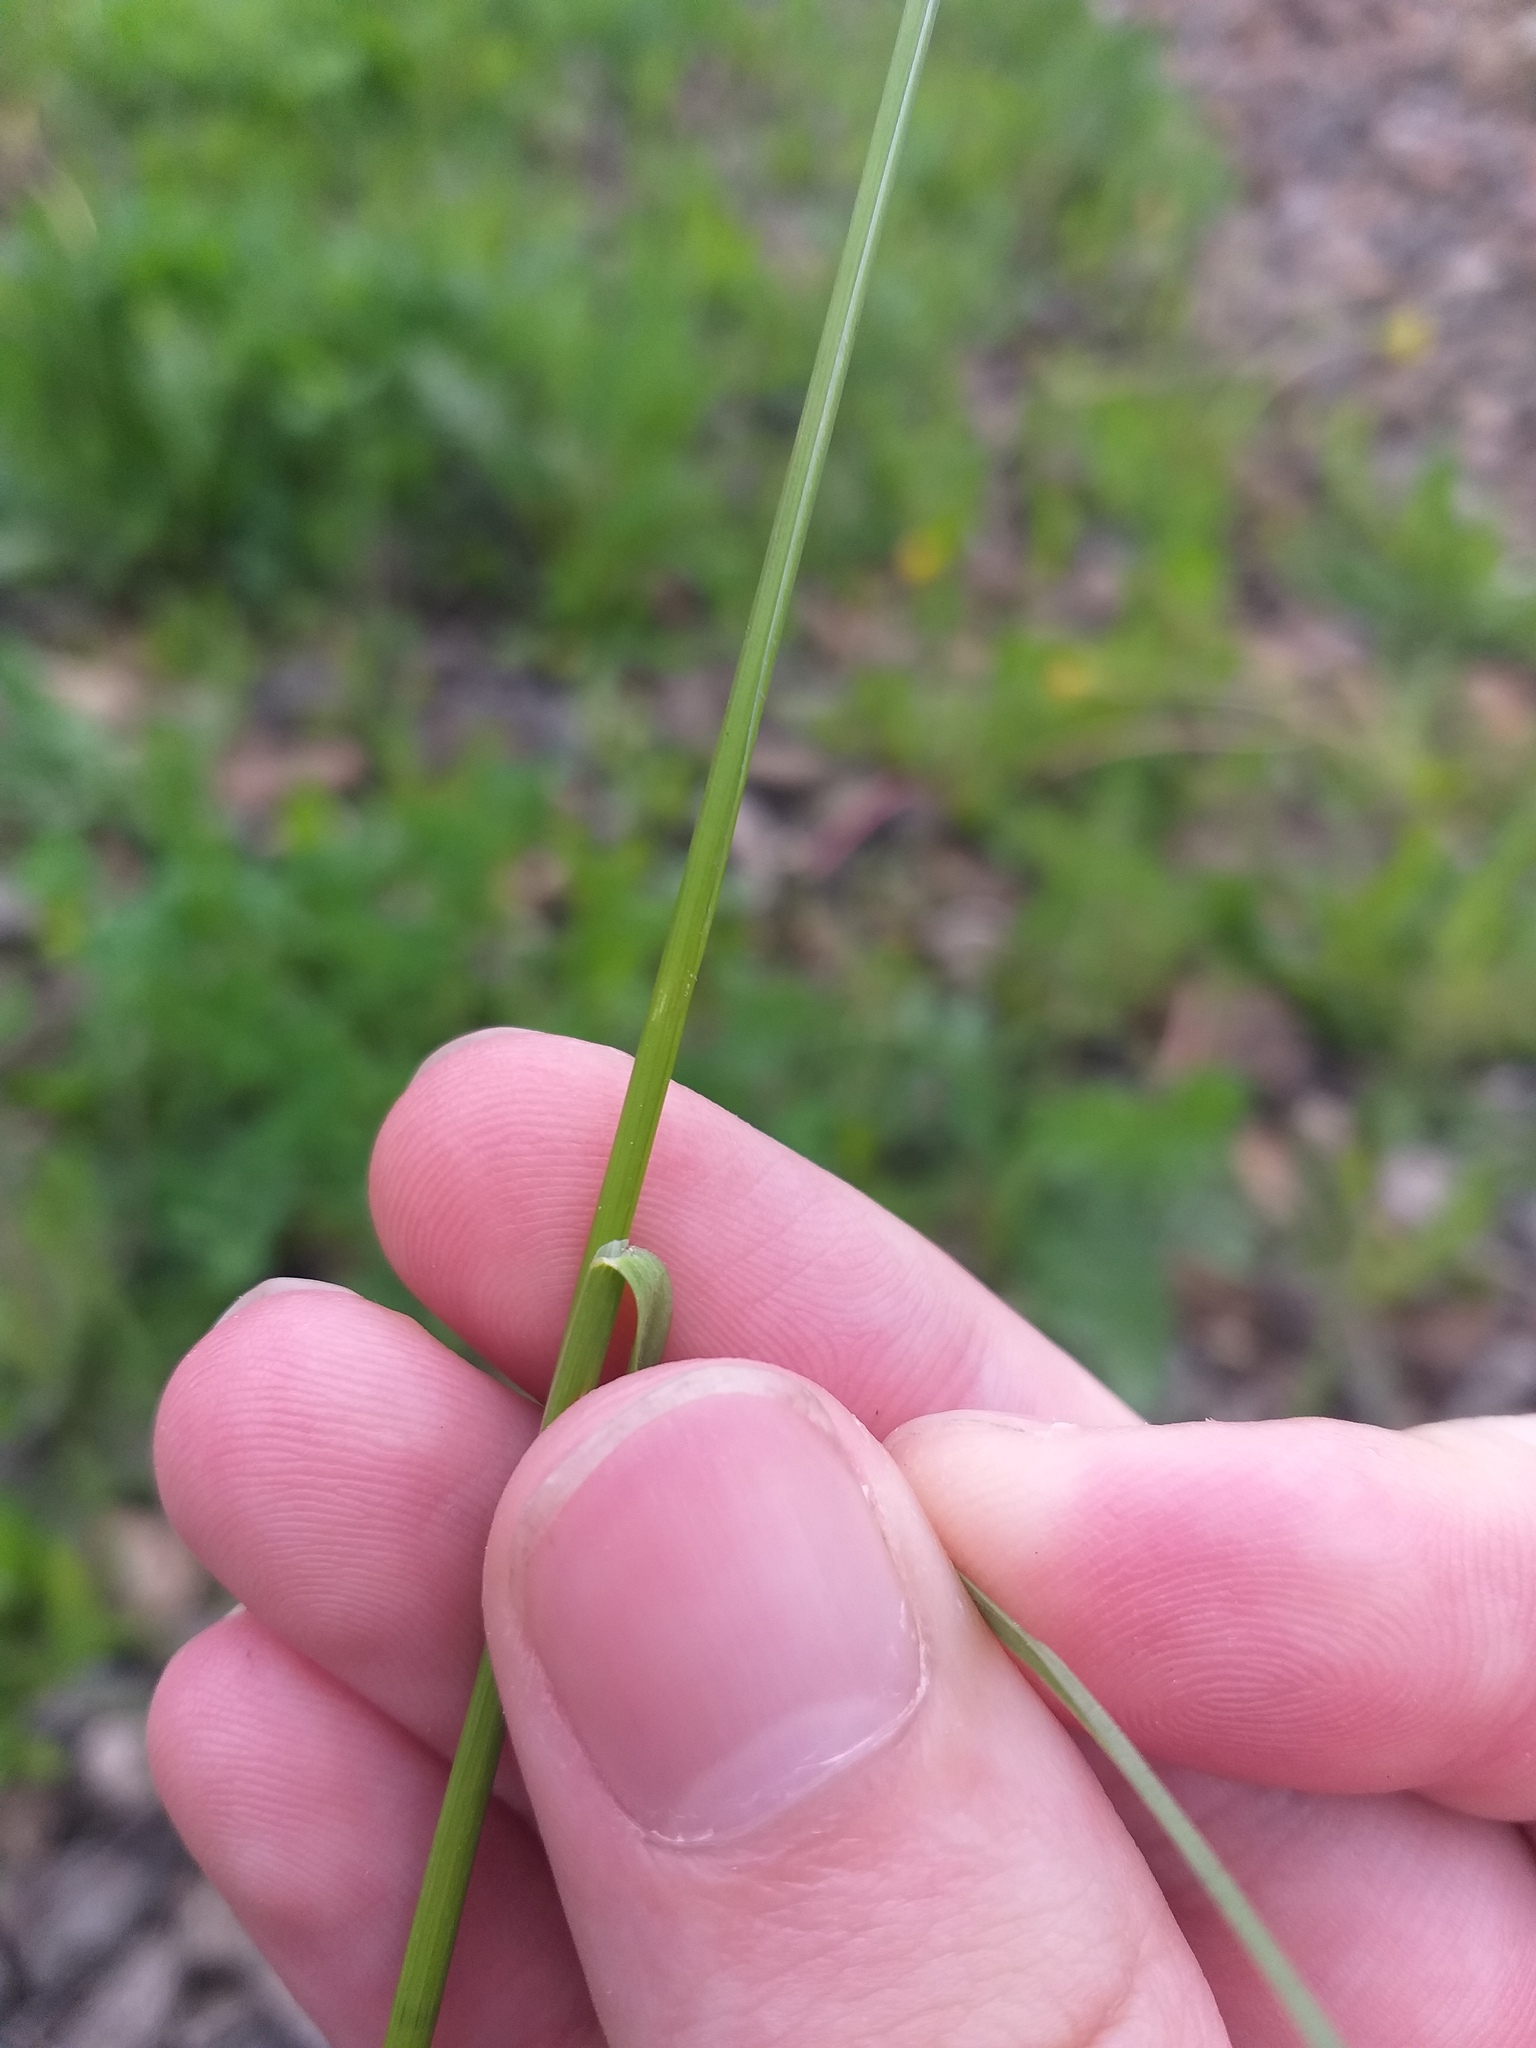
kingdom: Plantae
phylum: Tracheophyta
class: Liliopsida
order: Poales
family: Poaceae
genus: Poa
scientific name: Poa angustifolia
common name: Narrow-leaved meadow-grass
